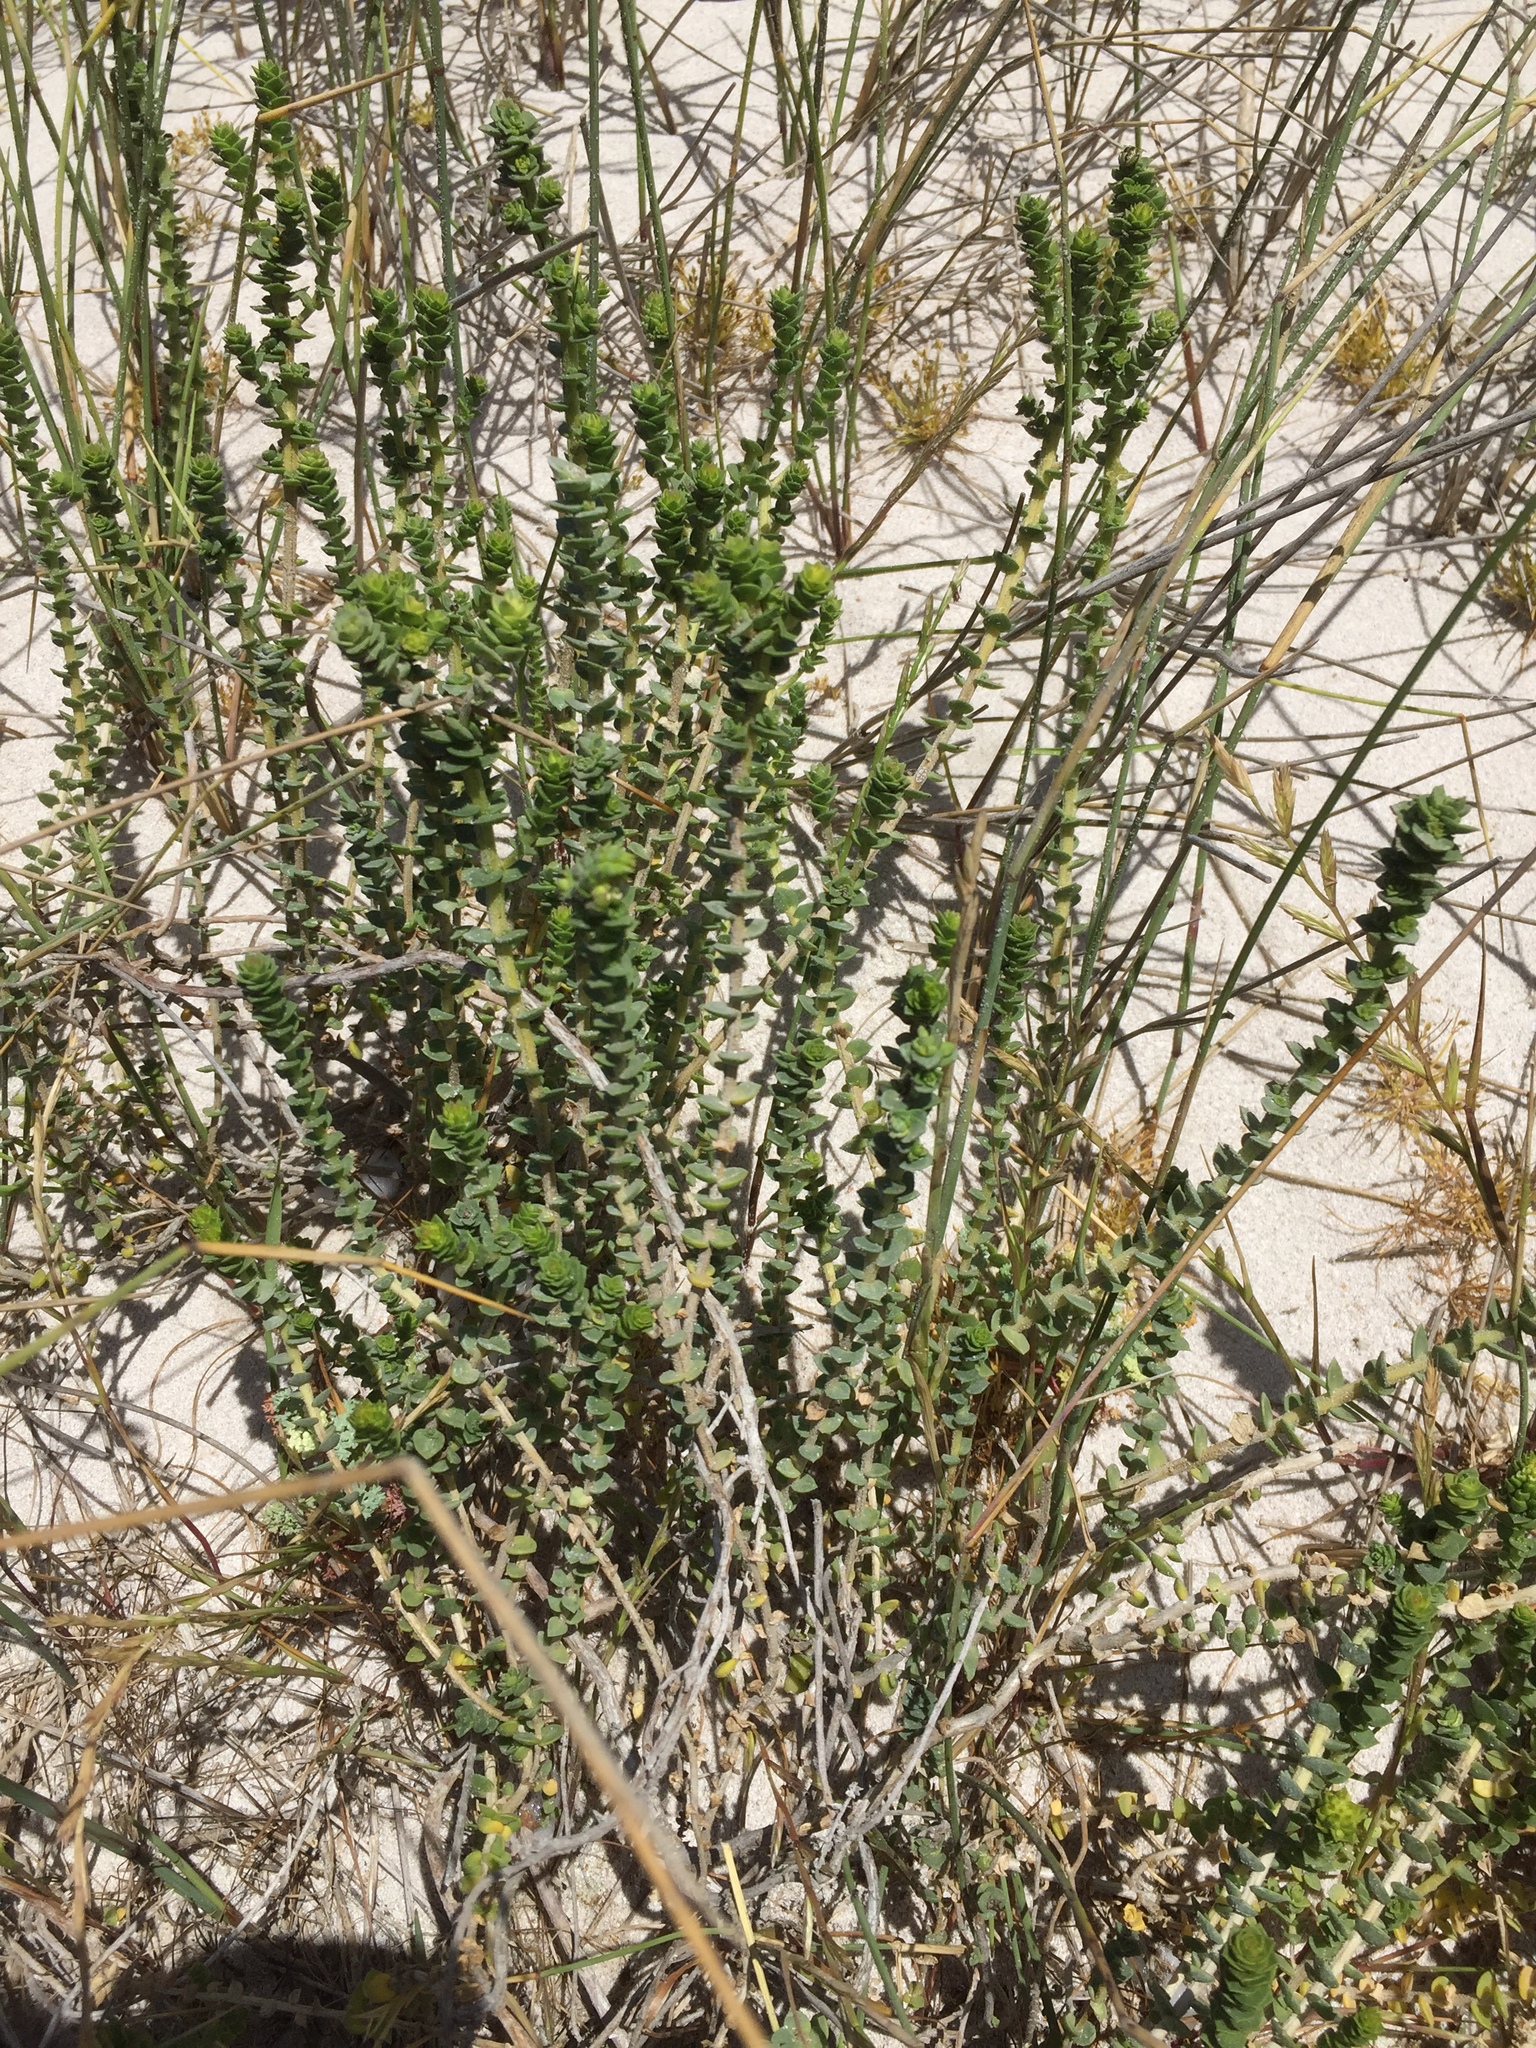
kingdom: Plantae
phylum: Tracheophyta
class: Magnoliopsida
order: Lamiales
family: Scrophulariaceae
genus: Hebenstretia
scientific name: Hebenstretia cordata
